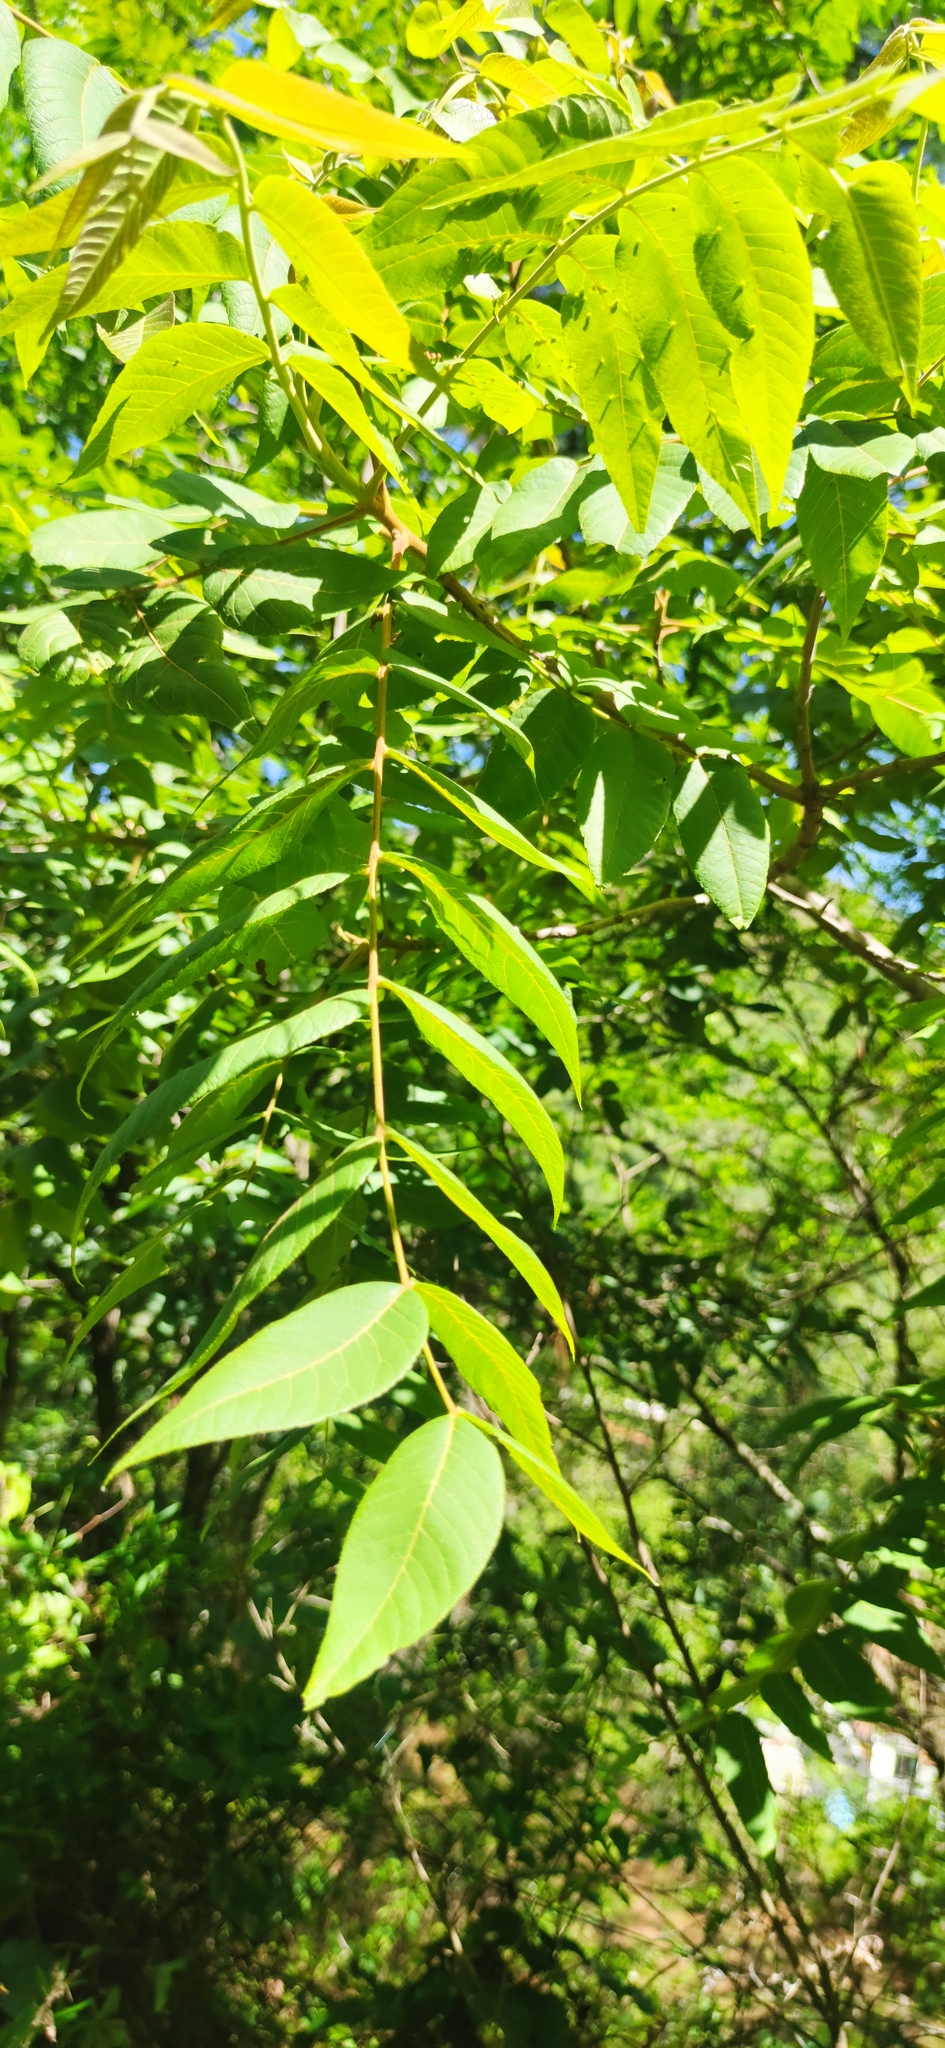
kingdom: Plantae
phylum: Tracheophyta
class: Magnoliopsida
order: Fagales
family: Juglandaceae
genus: Juglans
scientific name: Juglans mollis
